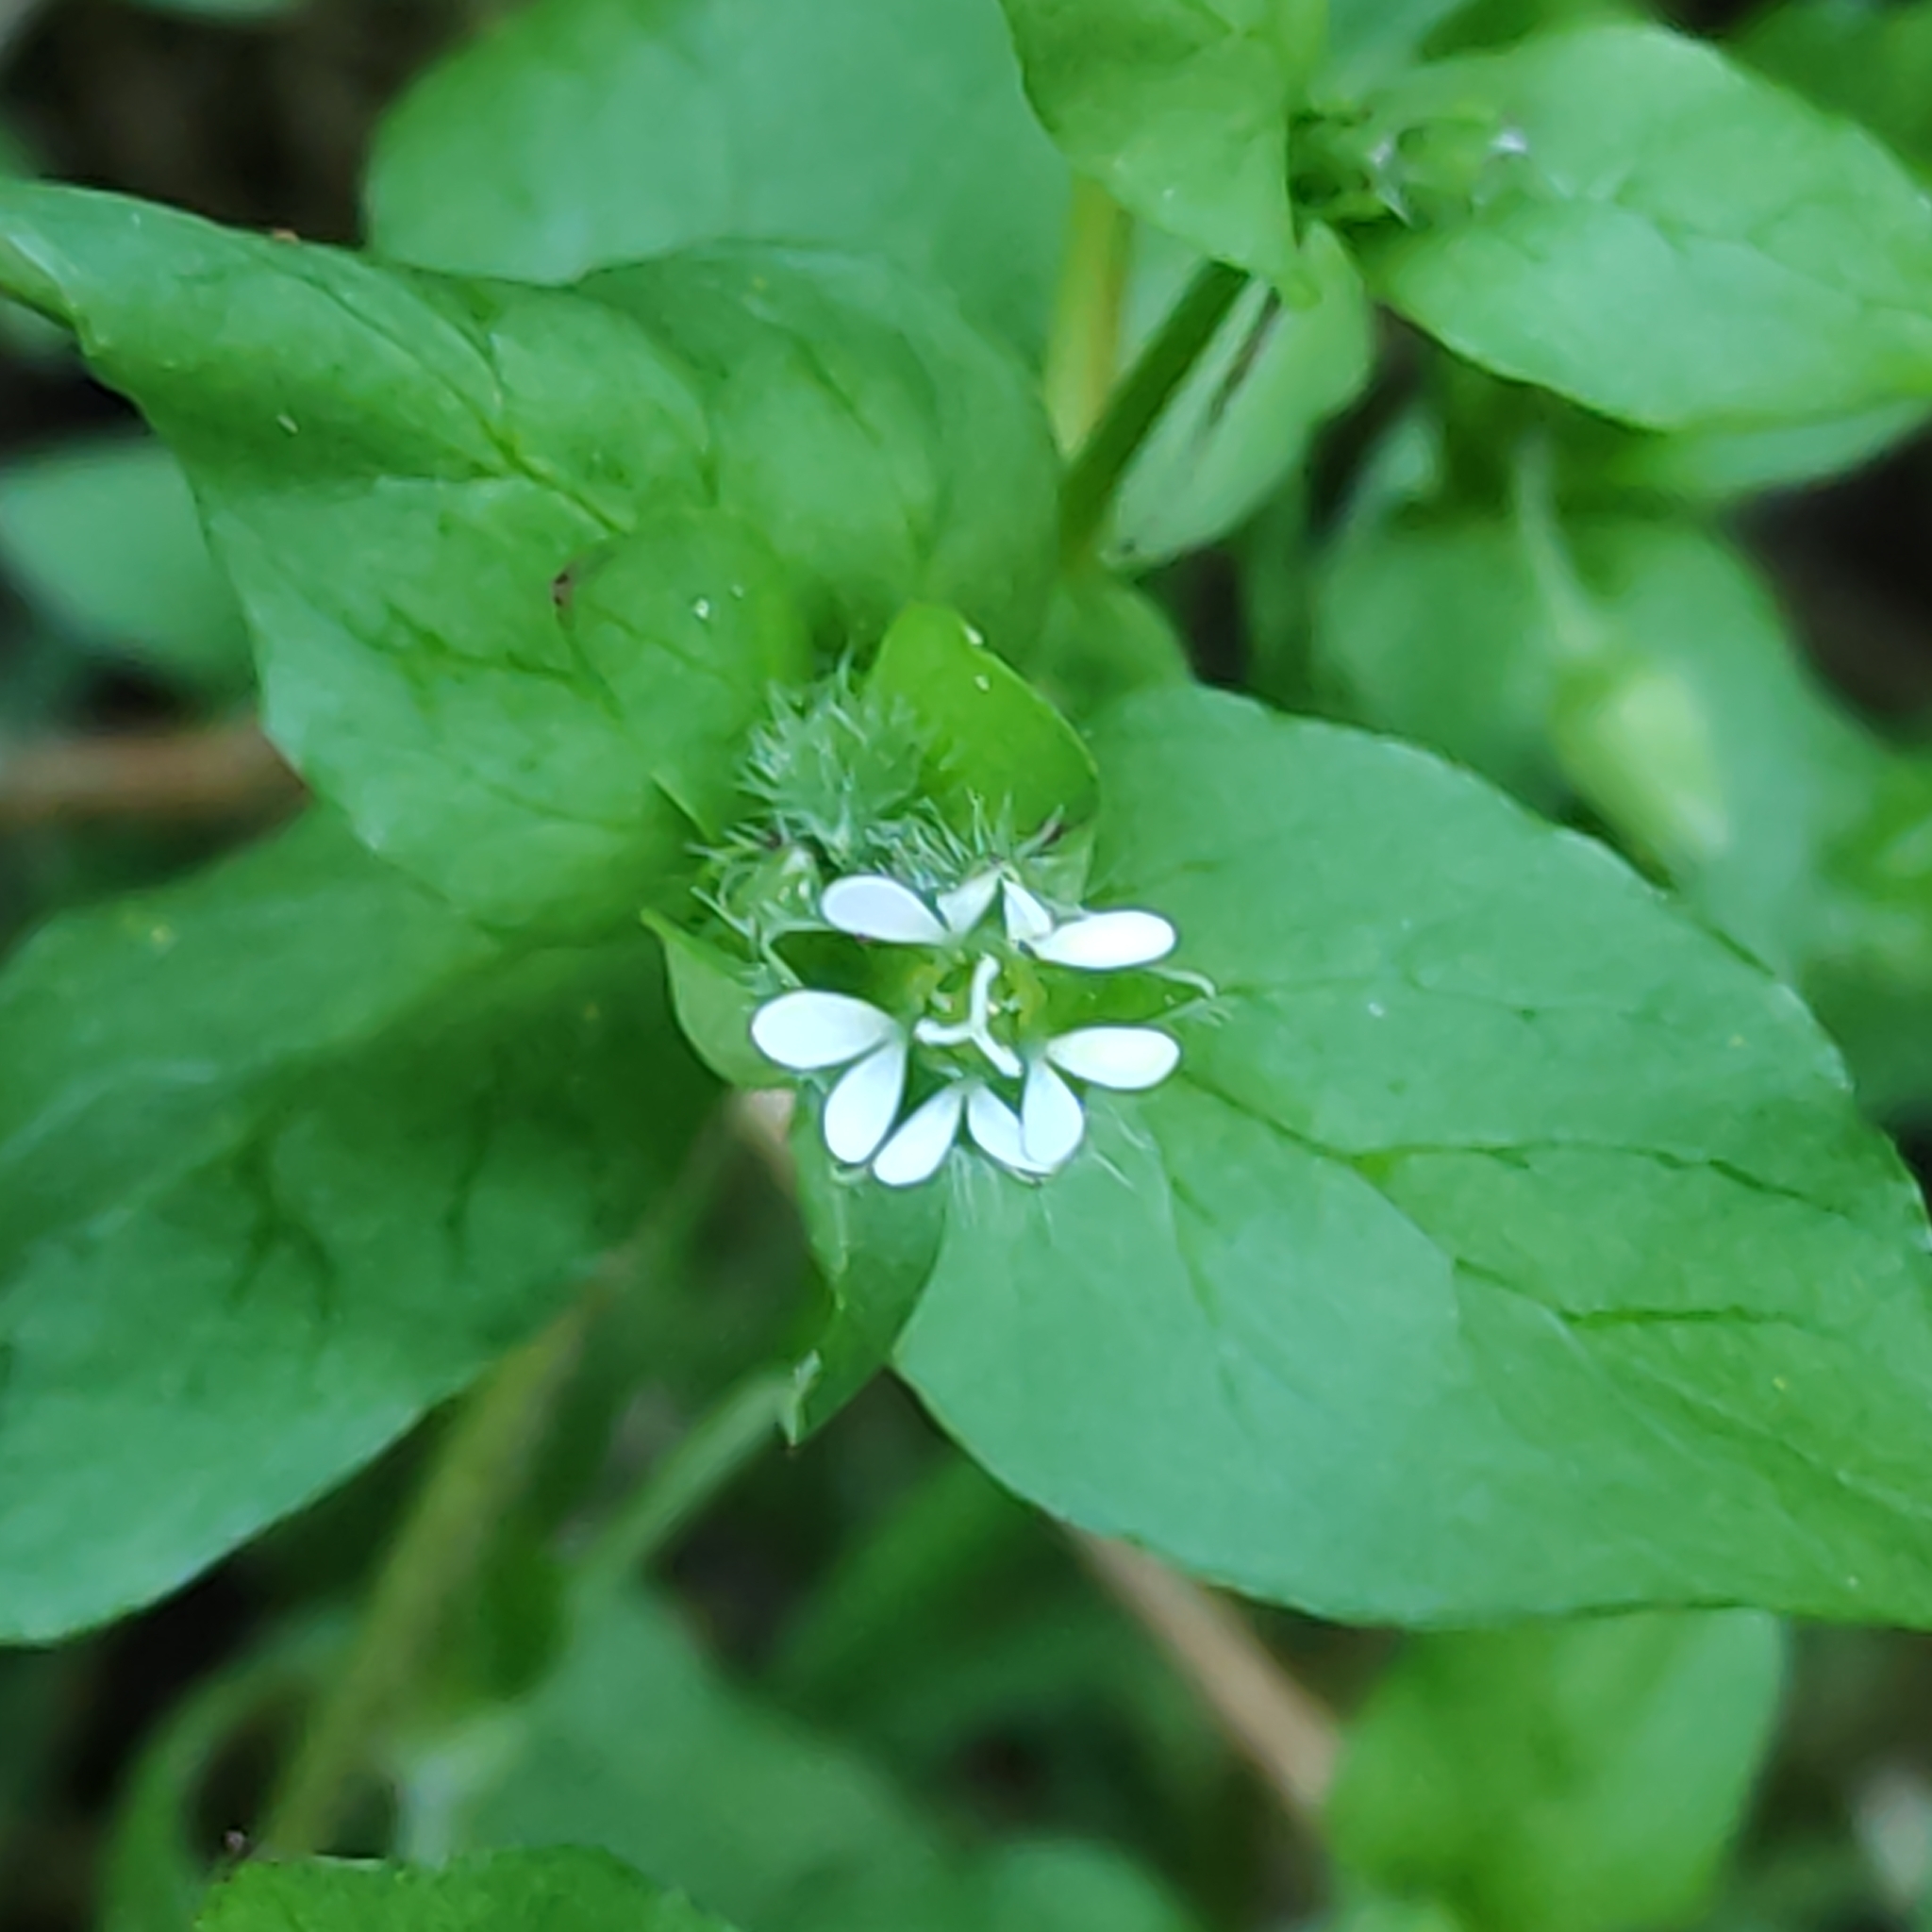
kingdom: Plantae
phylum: Tracheophyta
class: Magnoliopsida
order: Caryophyllales
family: Caryophyllaceae
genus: Stellaria
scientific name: Stellaria media
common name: Common chickweed
